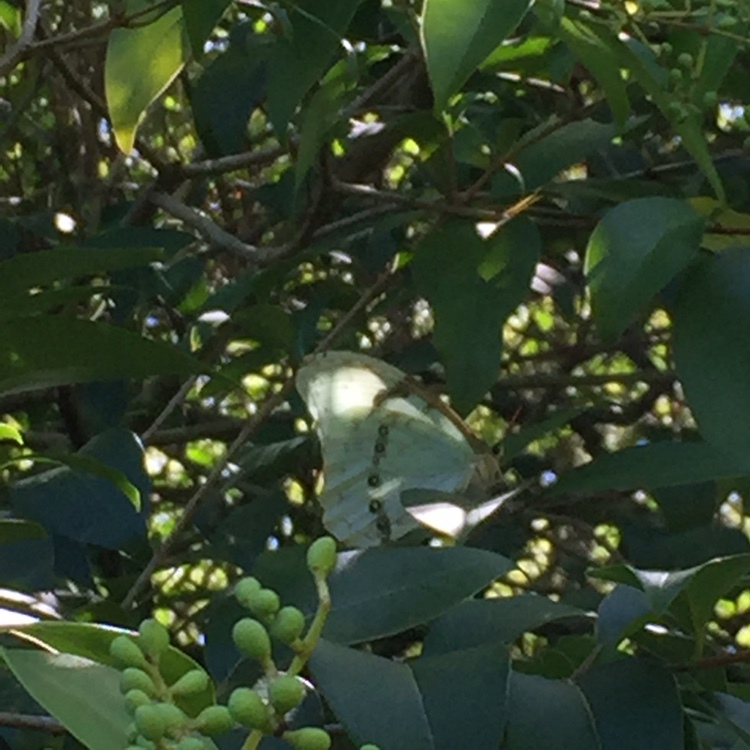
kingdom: Animalia
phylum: Arthropoda
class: Insecta
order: Lepidoptera
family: Nymphalidae
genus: Morpho
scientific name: Morpho epistrophus
